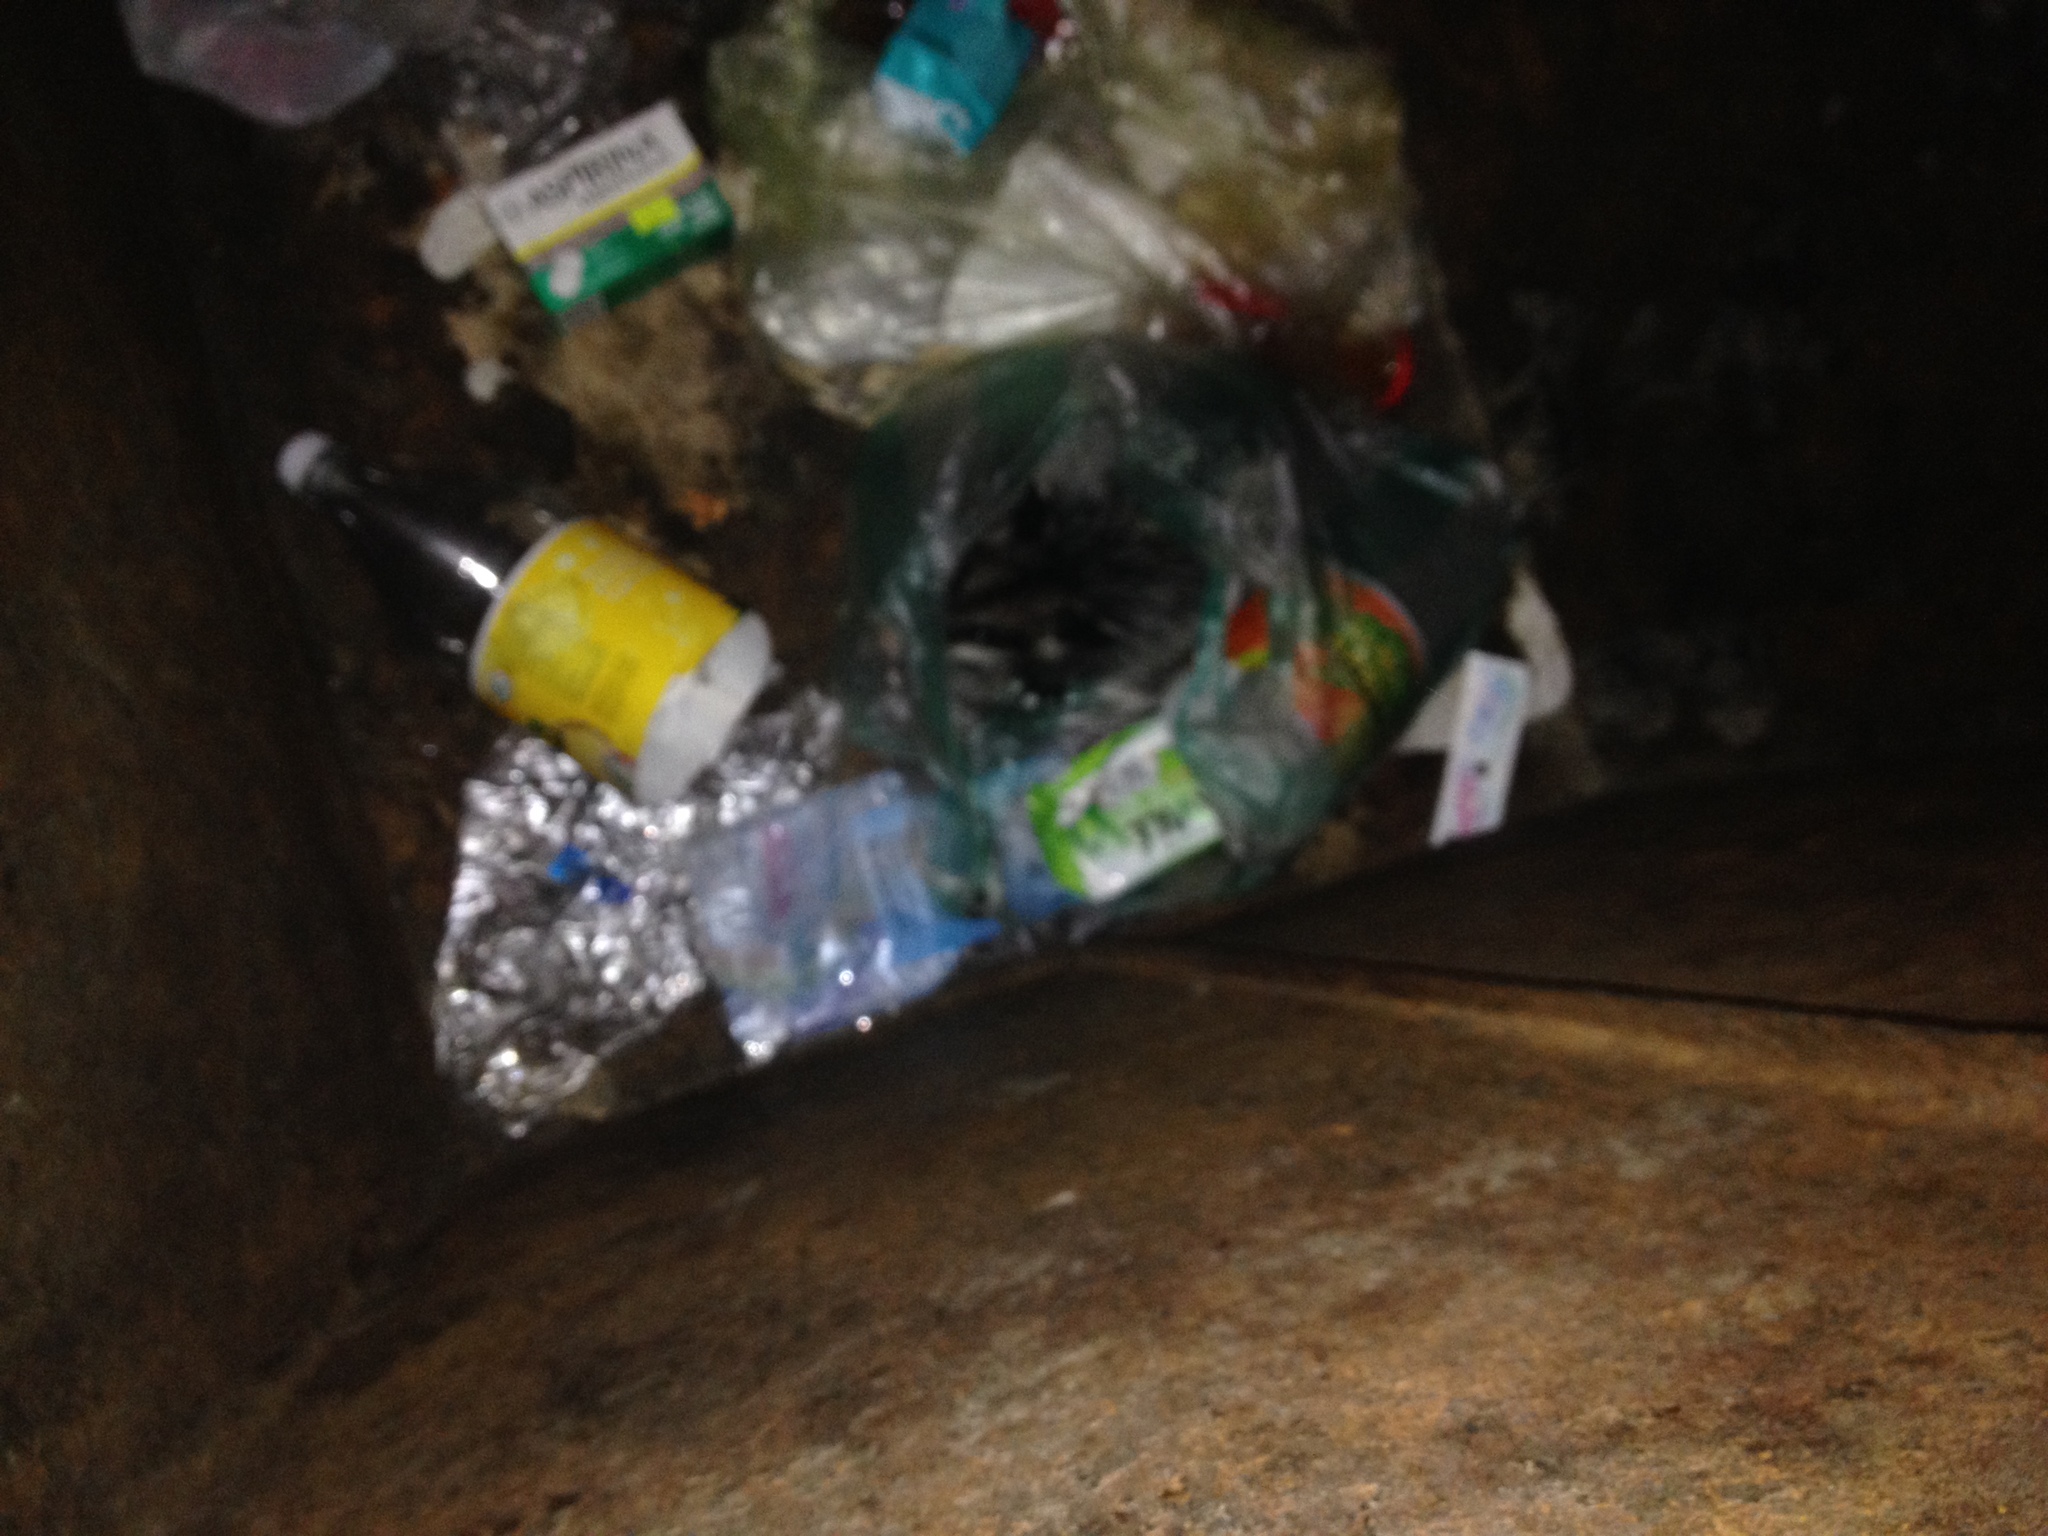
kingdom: Animalia
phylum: Chordata
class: Mammalia
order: Didelphimorphia
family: Didelphidae
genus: Didelphis
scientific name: Didelphis virginiana
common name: Virginia opossum
